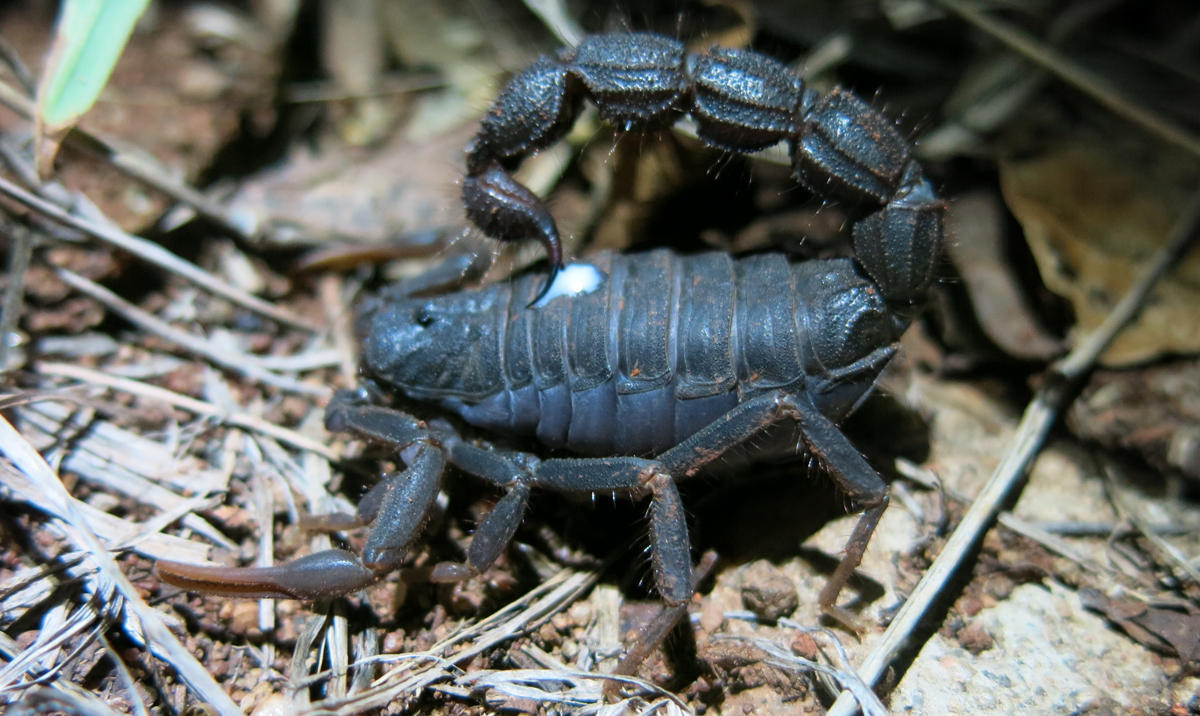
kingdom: Animalia
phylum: Arthropoda
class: Arachnida
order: Scorpiones
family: Buthidae
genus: Parabuthus
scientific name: Parabuthus transvaalicus
